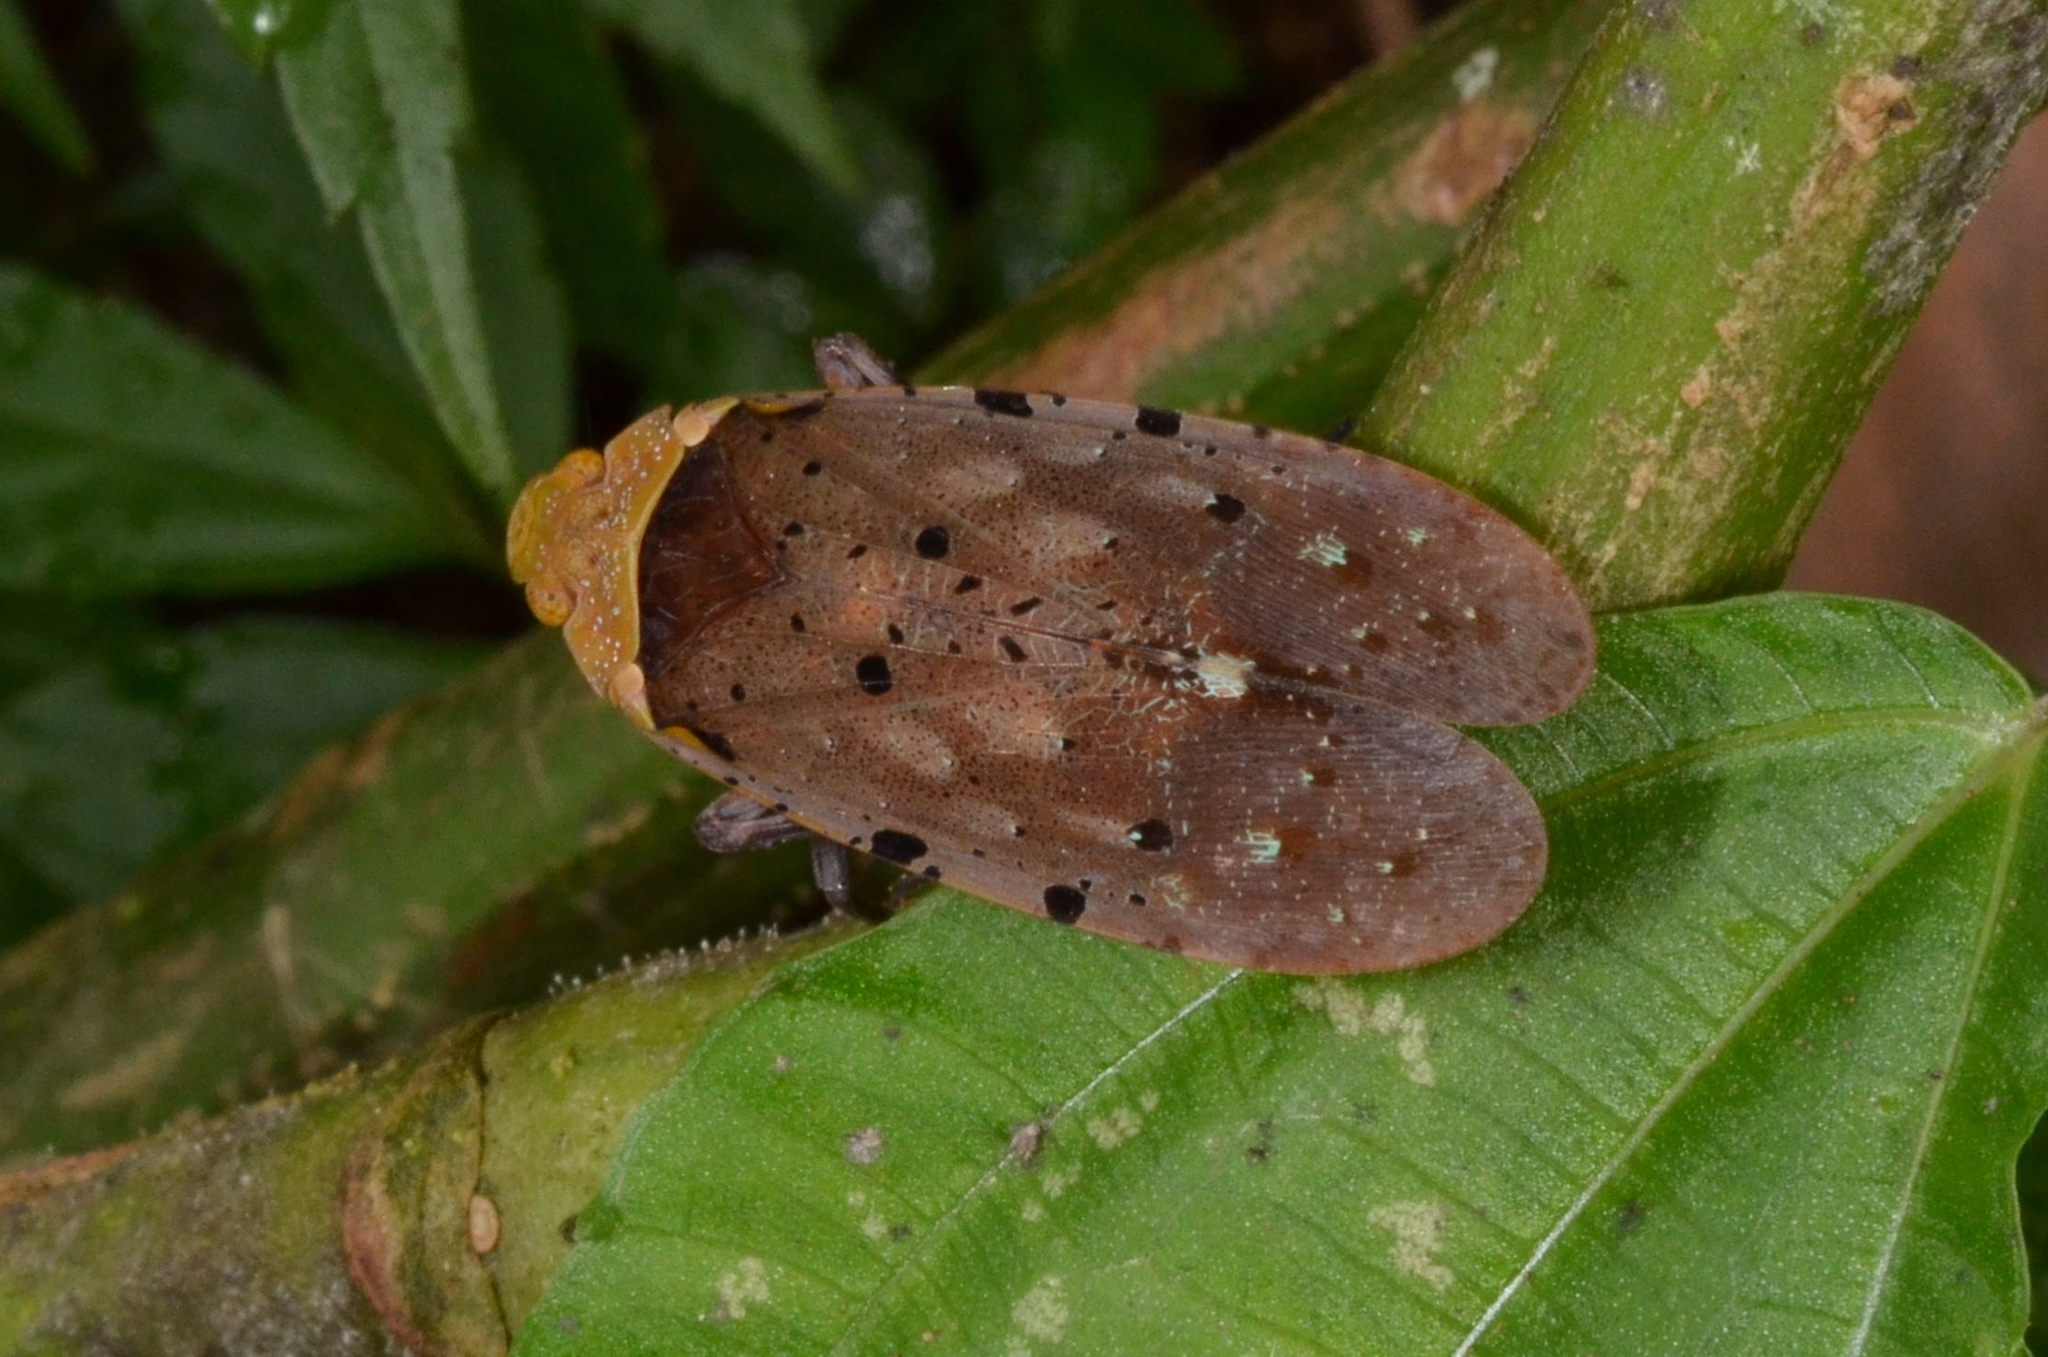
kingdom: Animalia
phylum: Arthropoda
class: Insecta
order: Hemiptera
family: Fulgoridae
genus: Penthicodes
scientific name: Penthicodes atomaria
